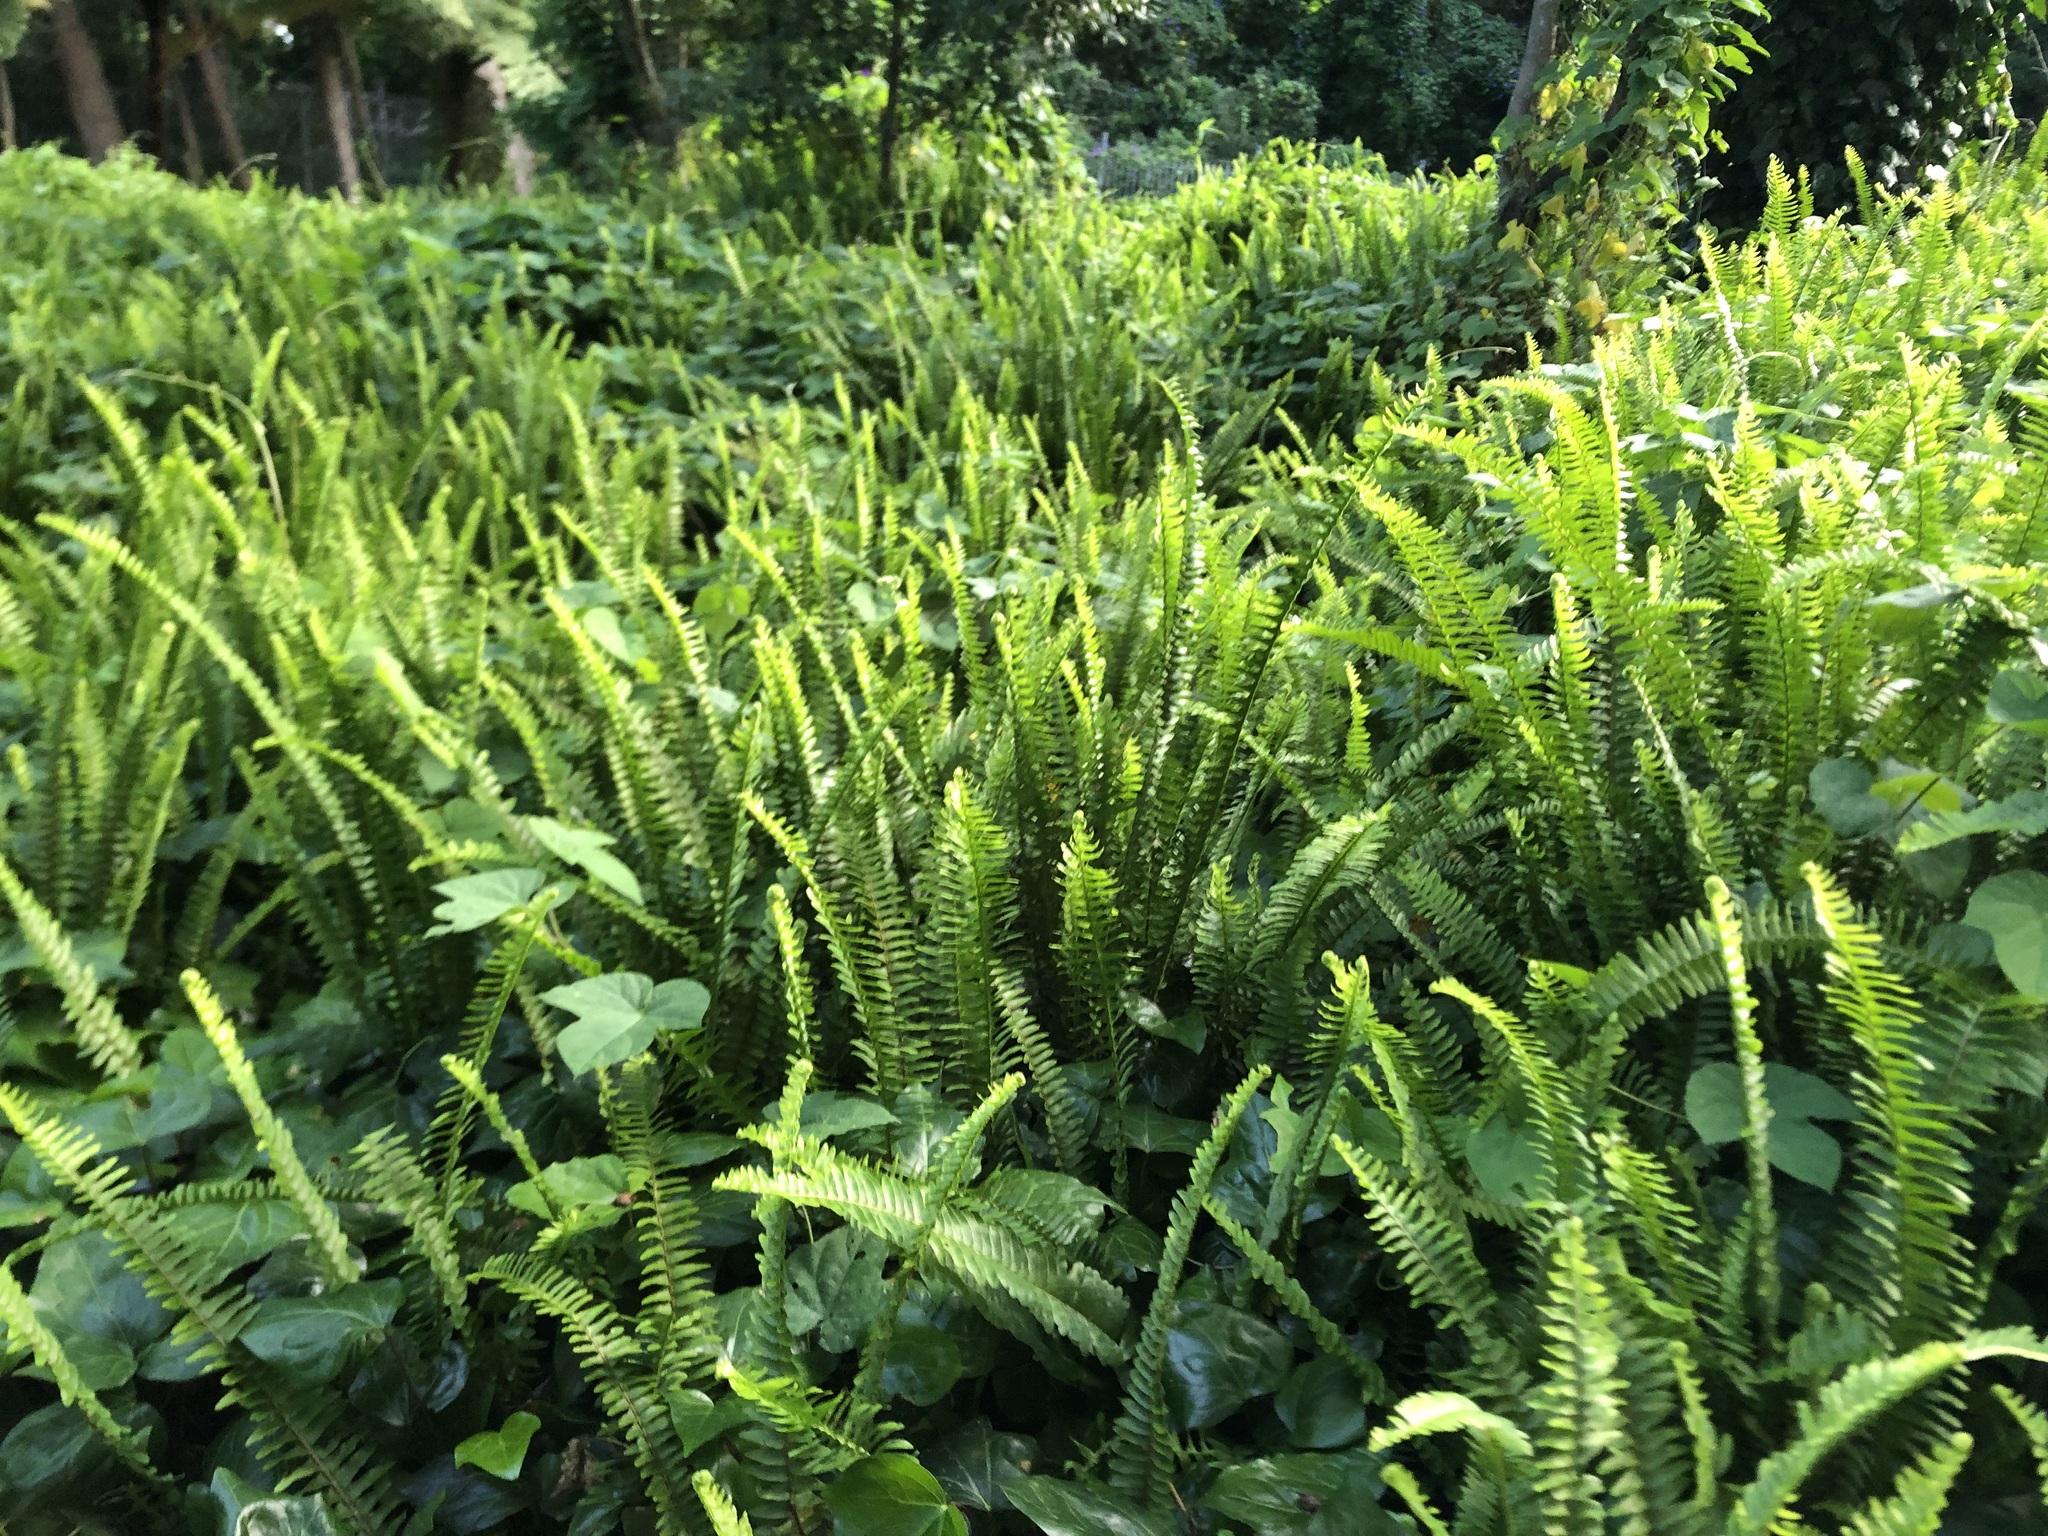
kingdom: Plantae
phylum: Tracheophyta
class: Polypodiopsida
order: Polypodiales
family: Nephrolepidaceae
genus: Nephrolepis
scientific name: Nephrolepis cordifolia
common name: Narrow swordfern
